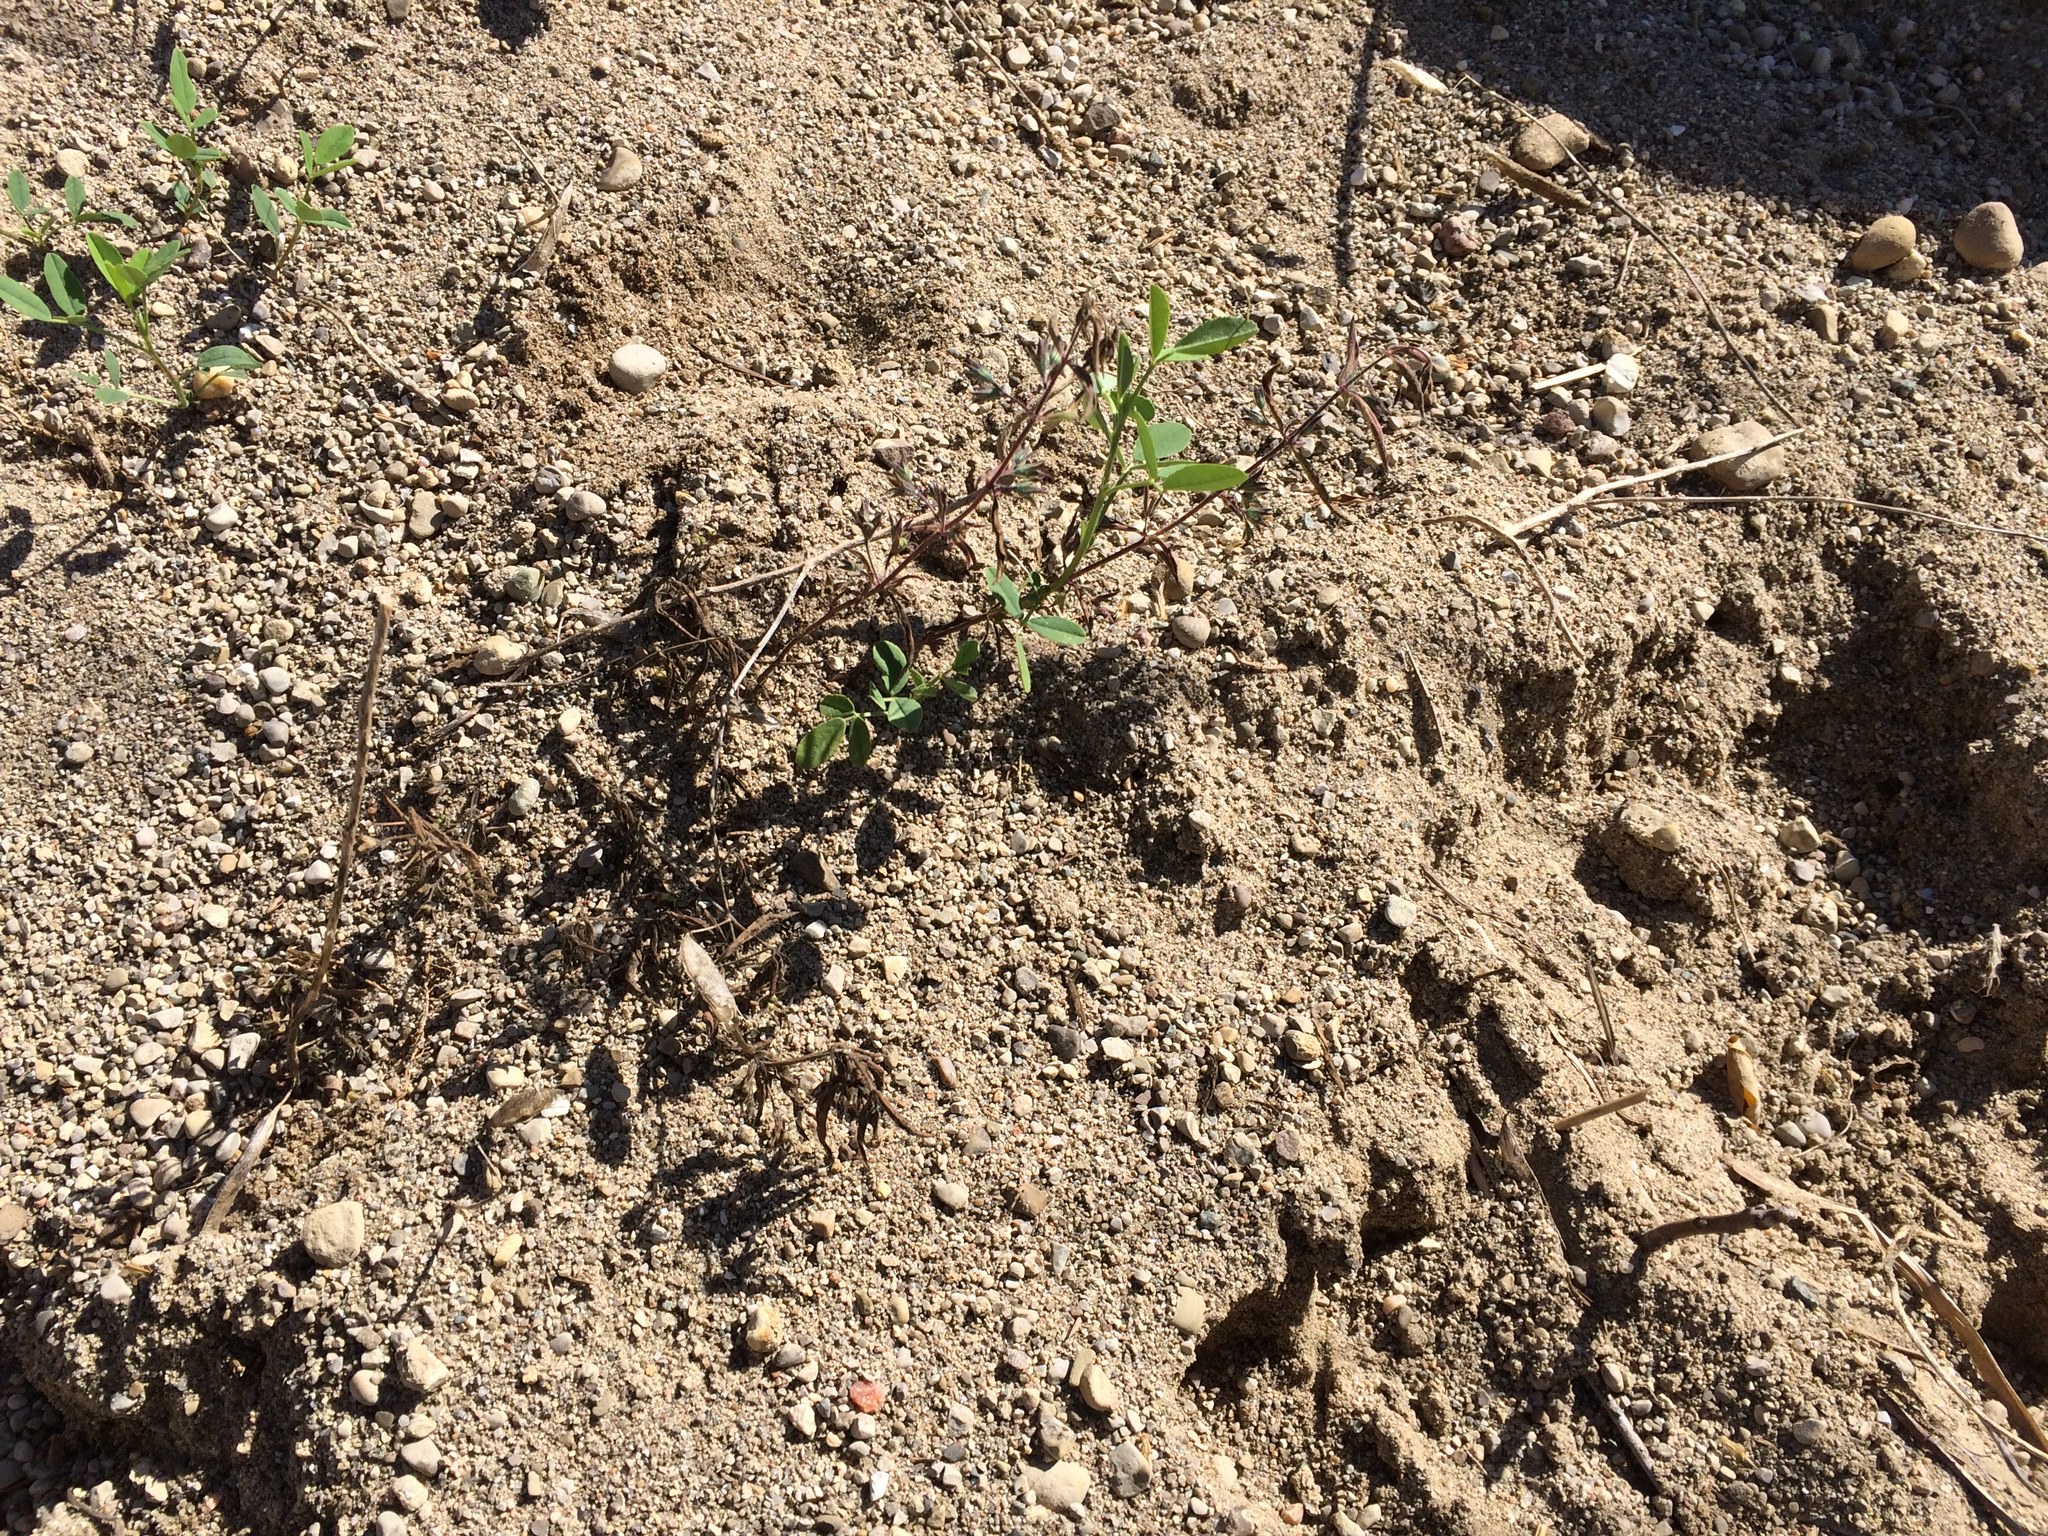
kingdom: Plantae
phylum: Tracheophyta
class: Magnoliopsida
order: Brassicales
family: Cleomaceae
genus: Polanisia
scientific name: Polanisia dodecandra
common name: Clammyweed
